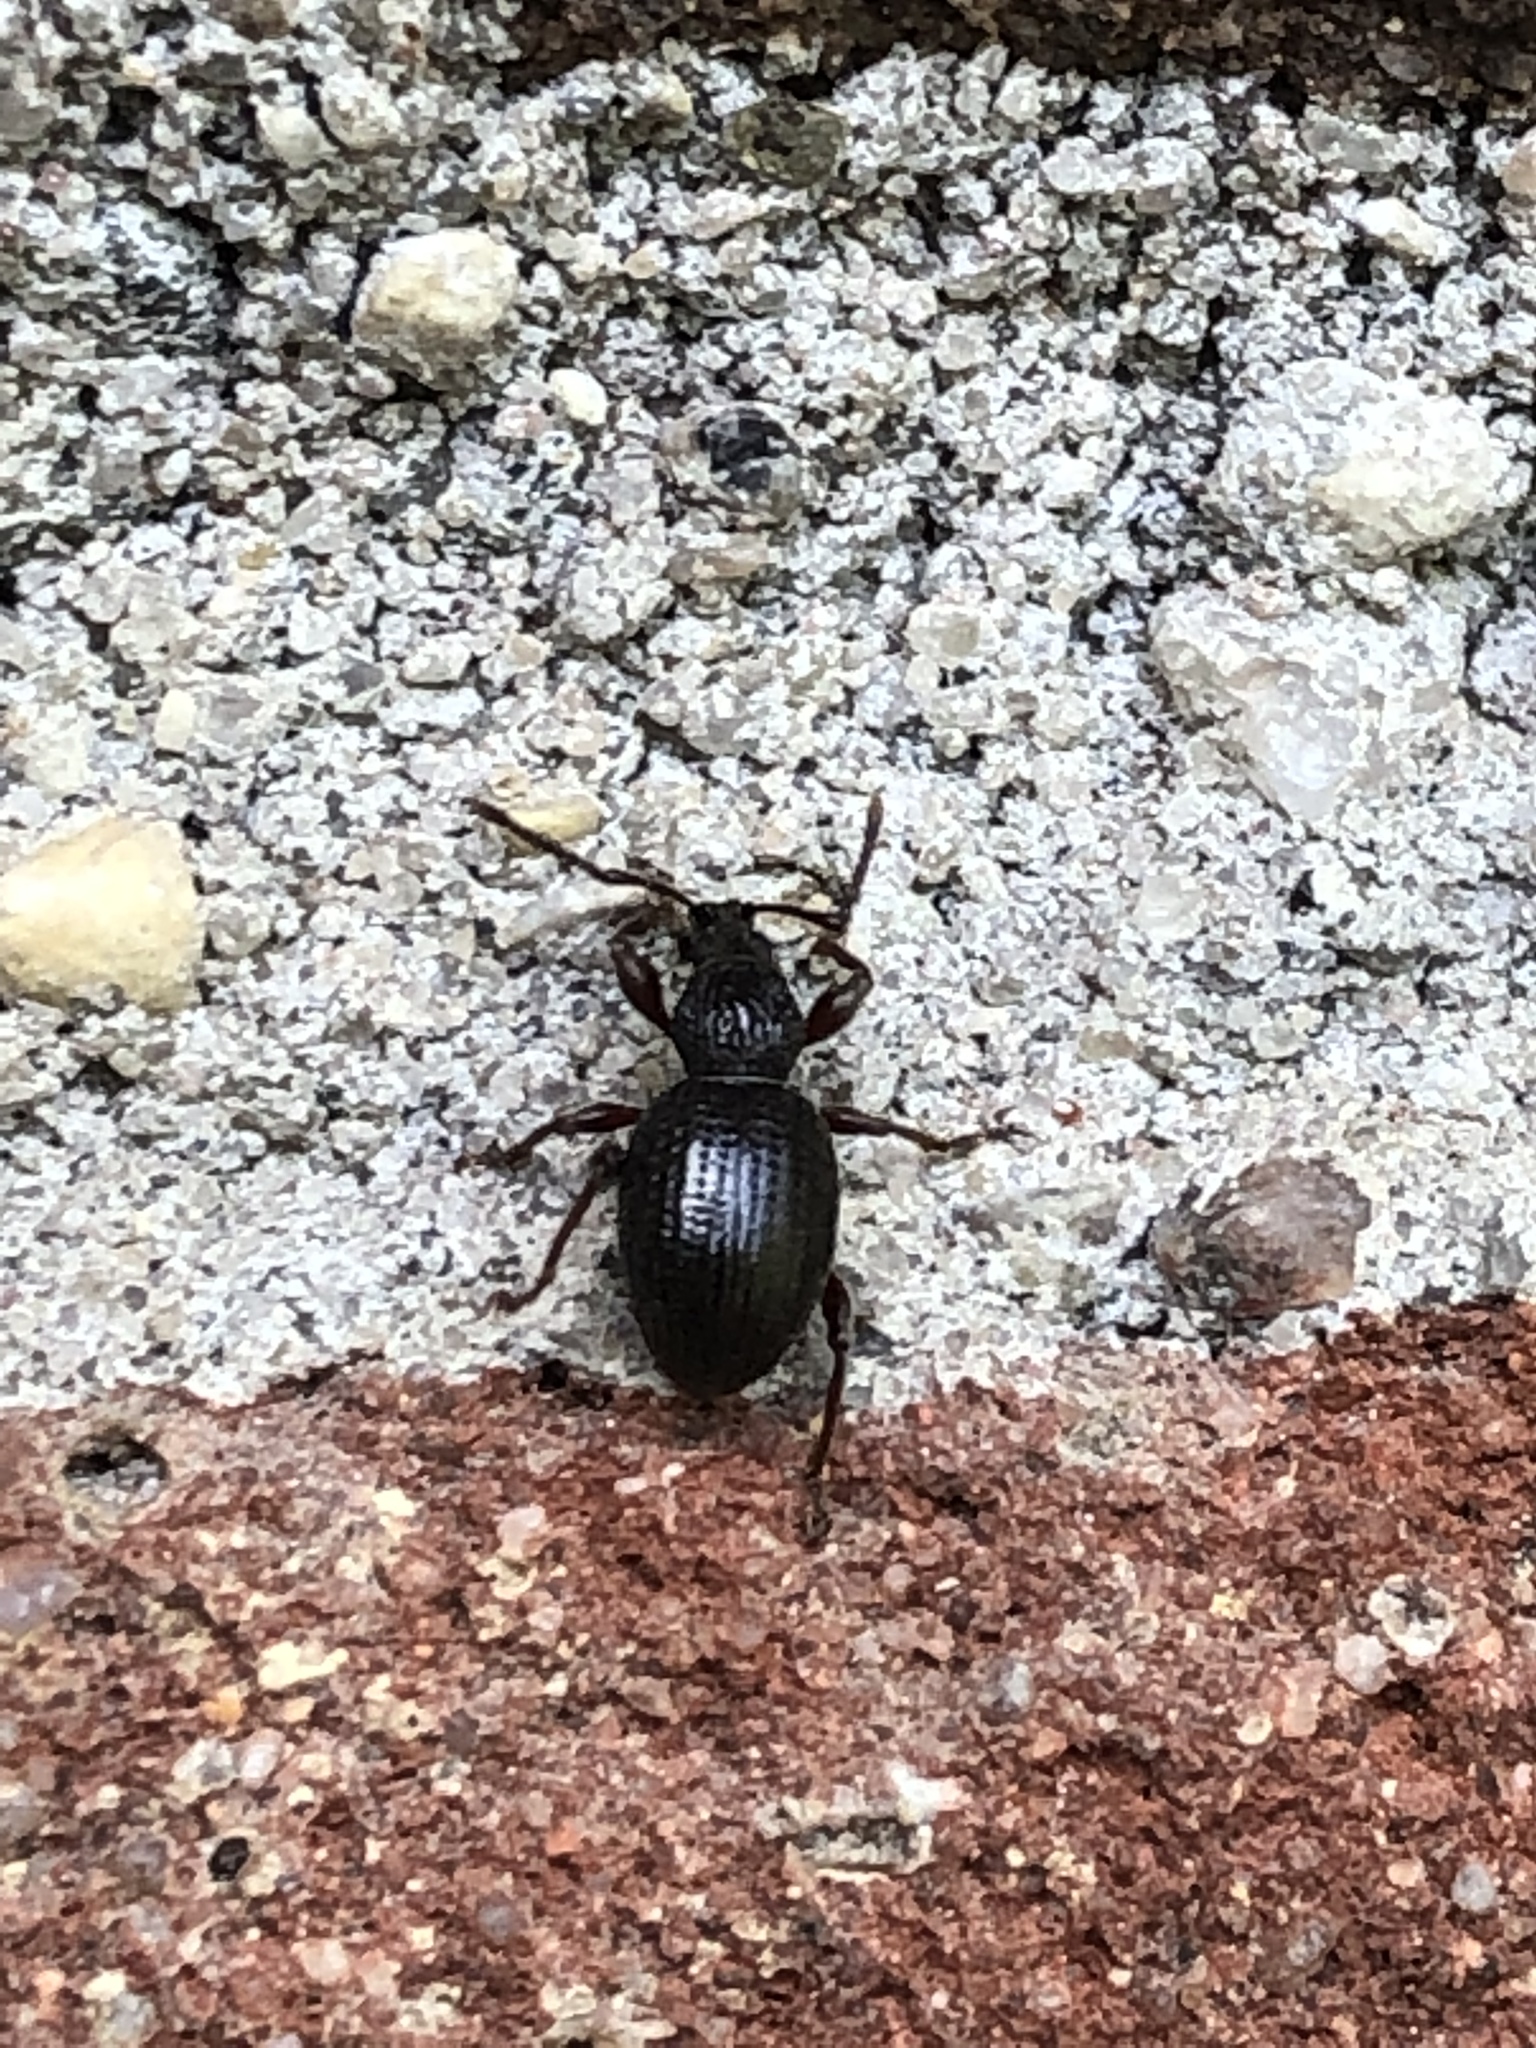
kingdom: Animalia
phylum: Arthropoda
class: Insecta
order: Coleoptera
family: Curculionidae
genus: Otiorhynchus
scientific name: Otiorhynchus ovatus
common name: Strawberry root weevil
